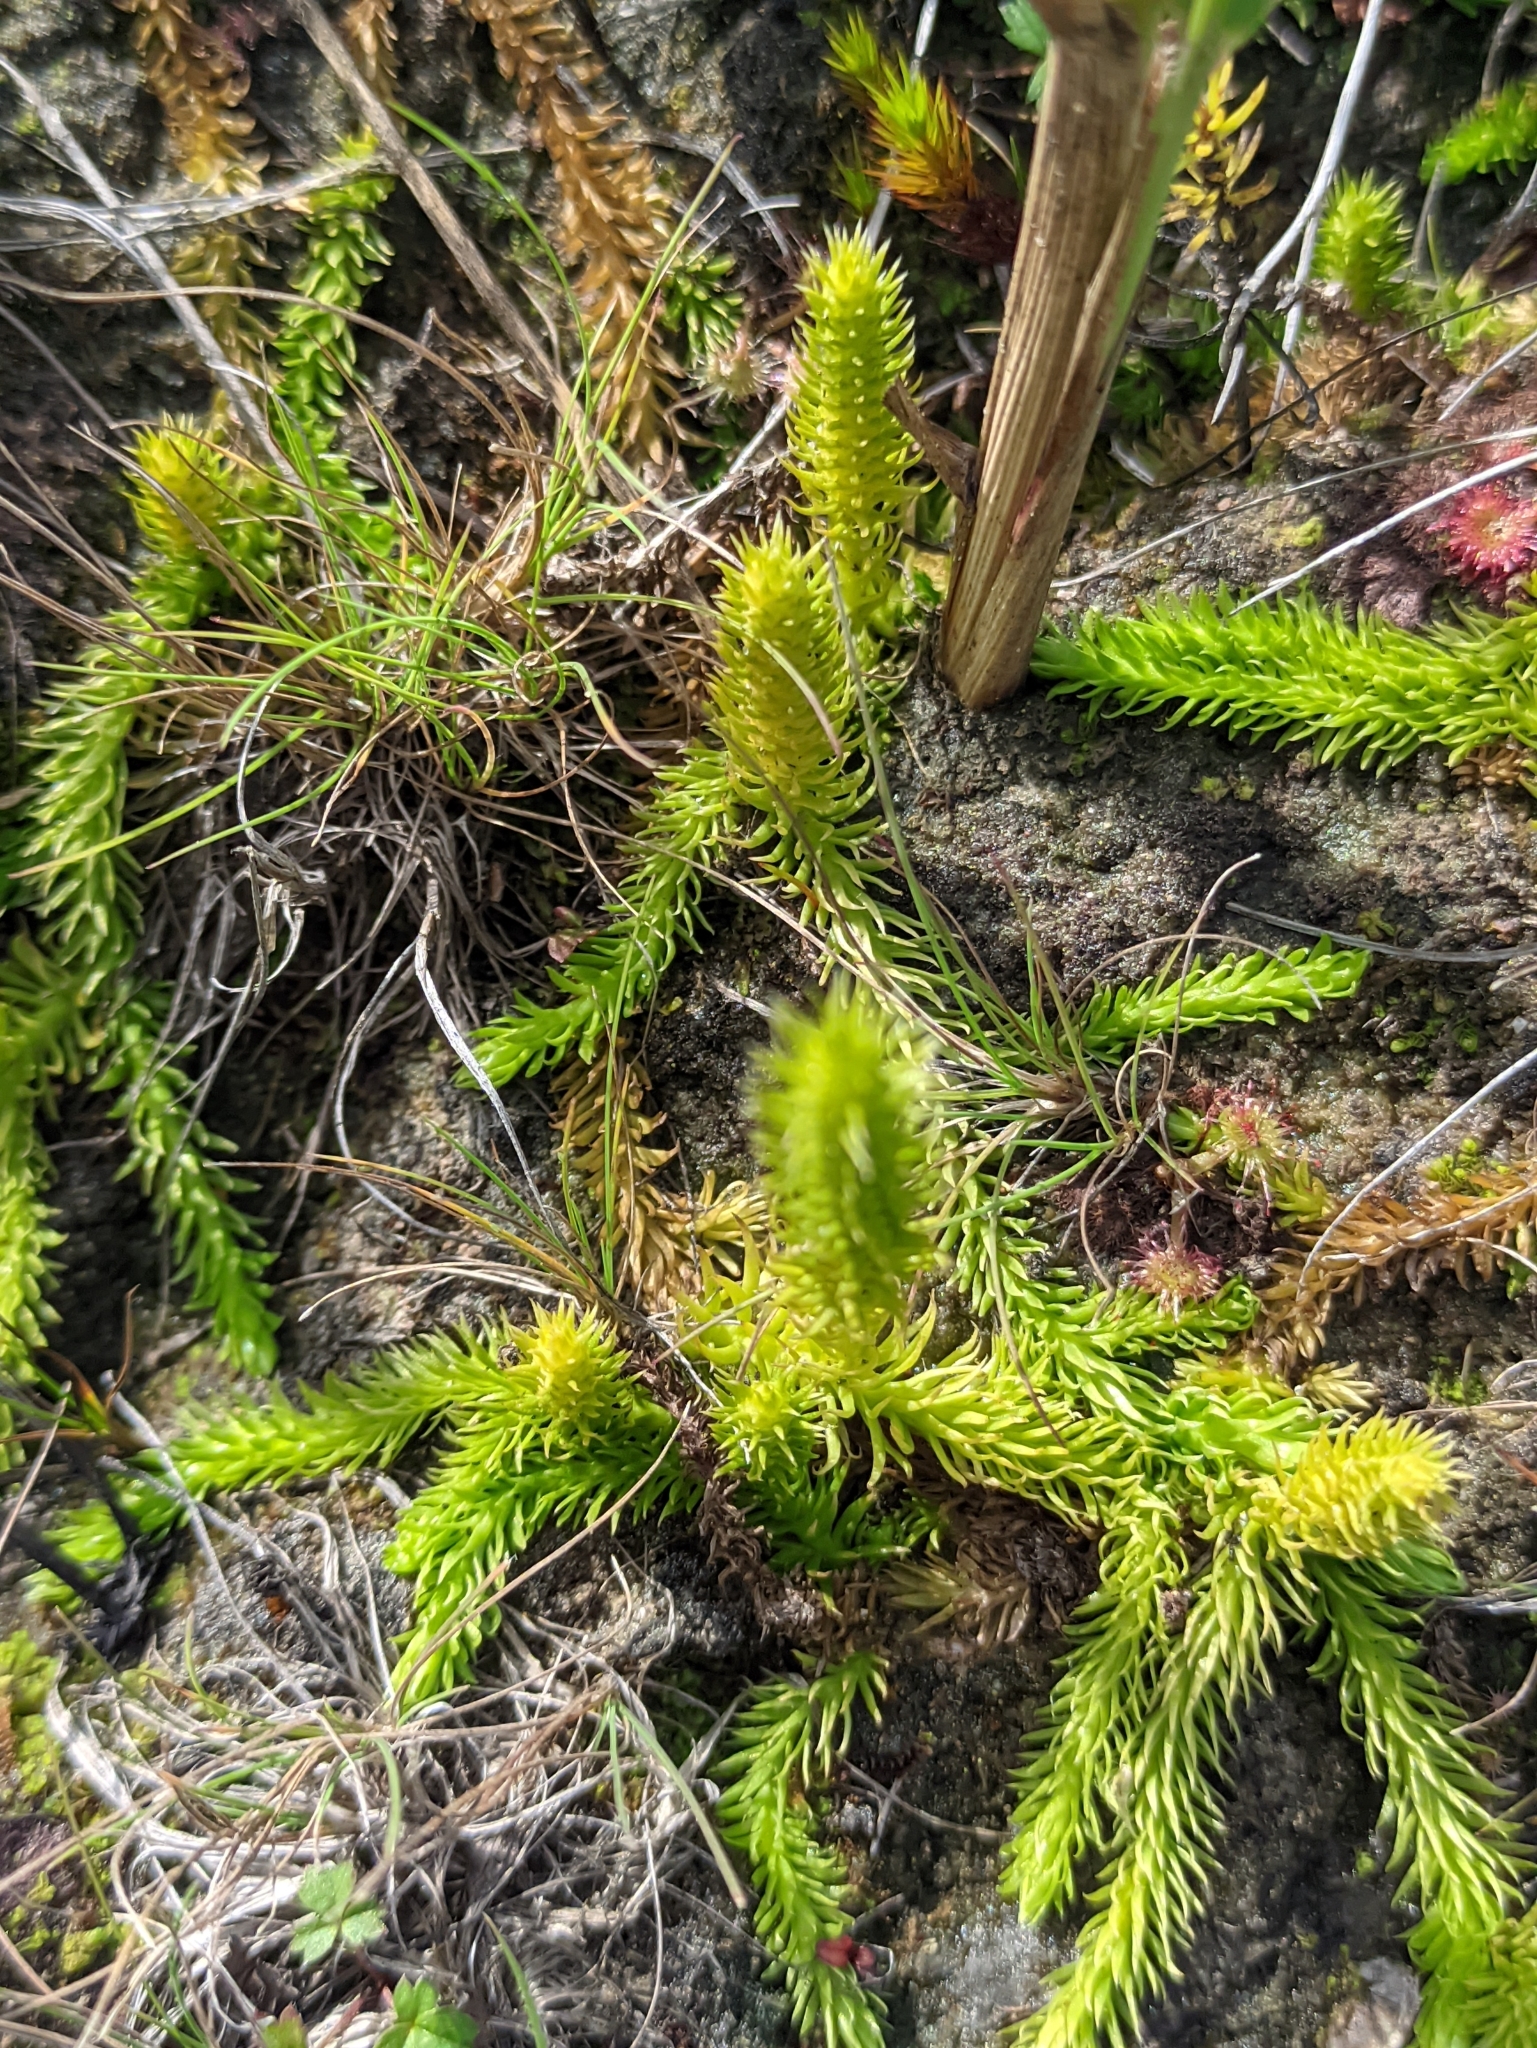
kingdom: Plantae
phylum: Tracheophyta
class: Lycopodiopsida
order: Lycopodiales
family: Lycopodiaceae
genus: Lycopodiella
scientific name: Lycopodiella inundata
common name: Marsh clubmoss
